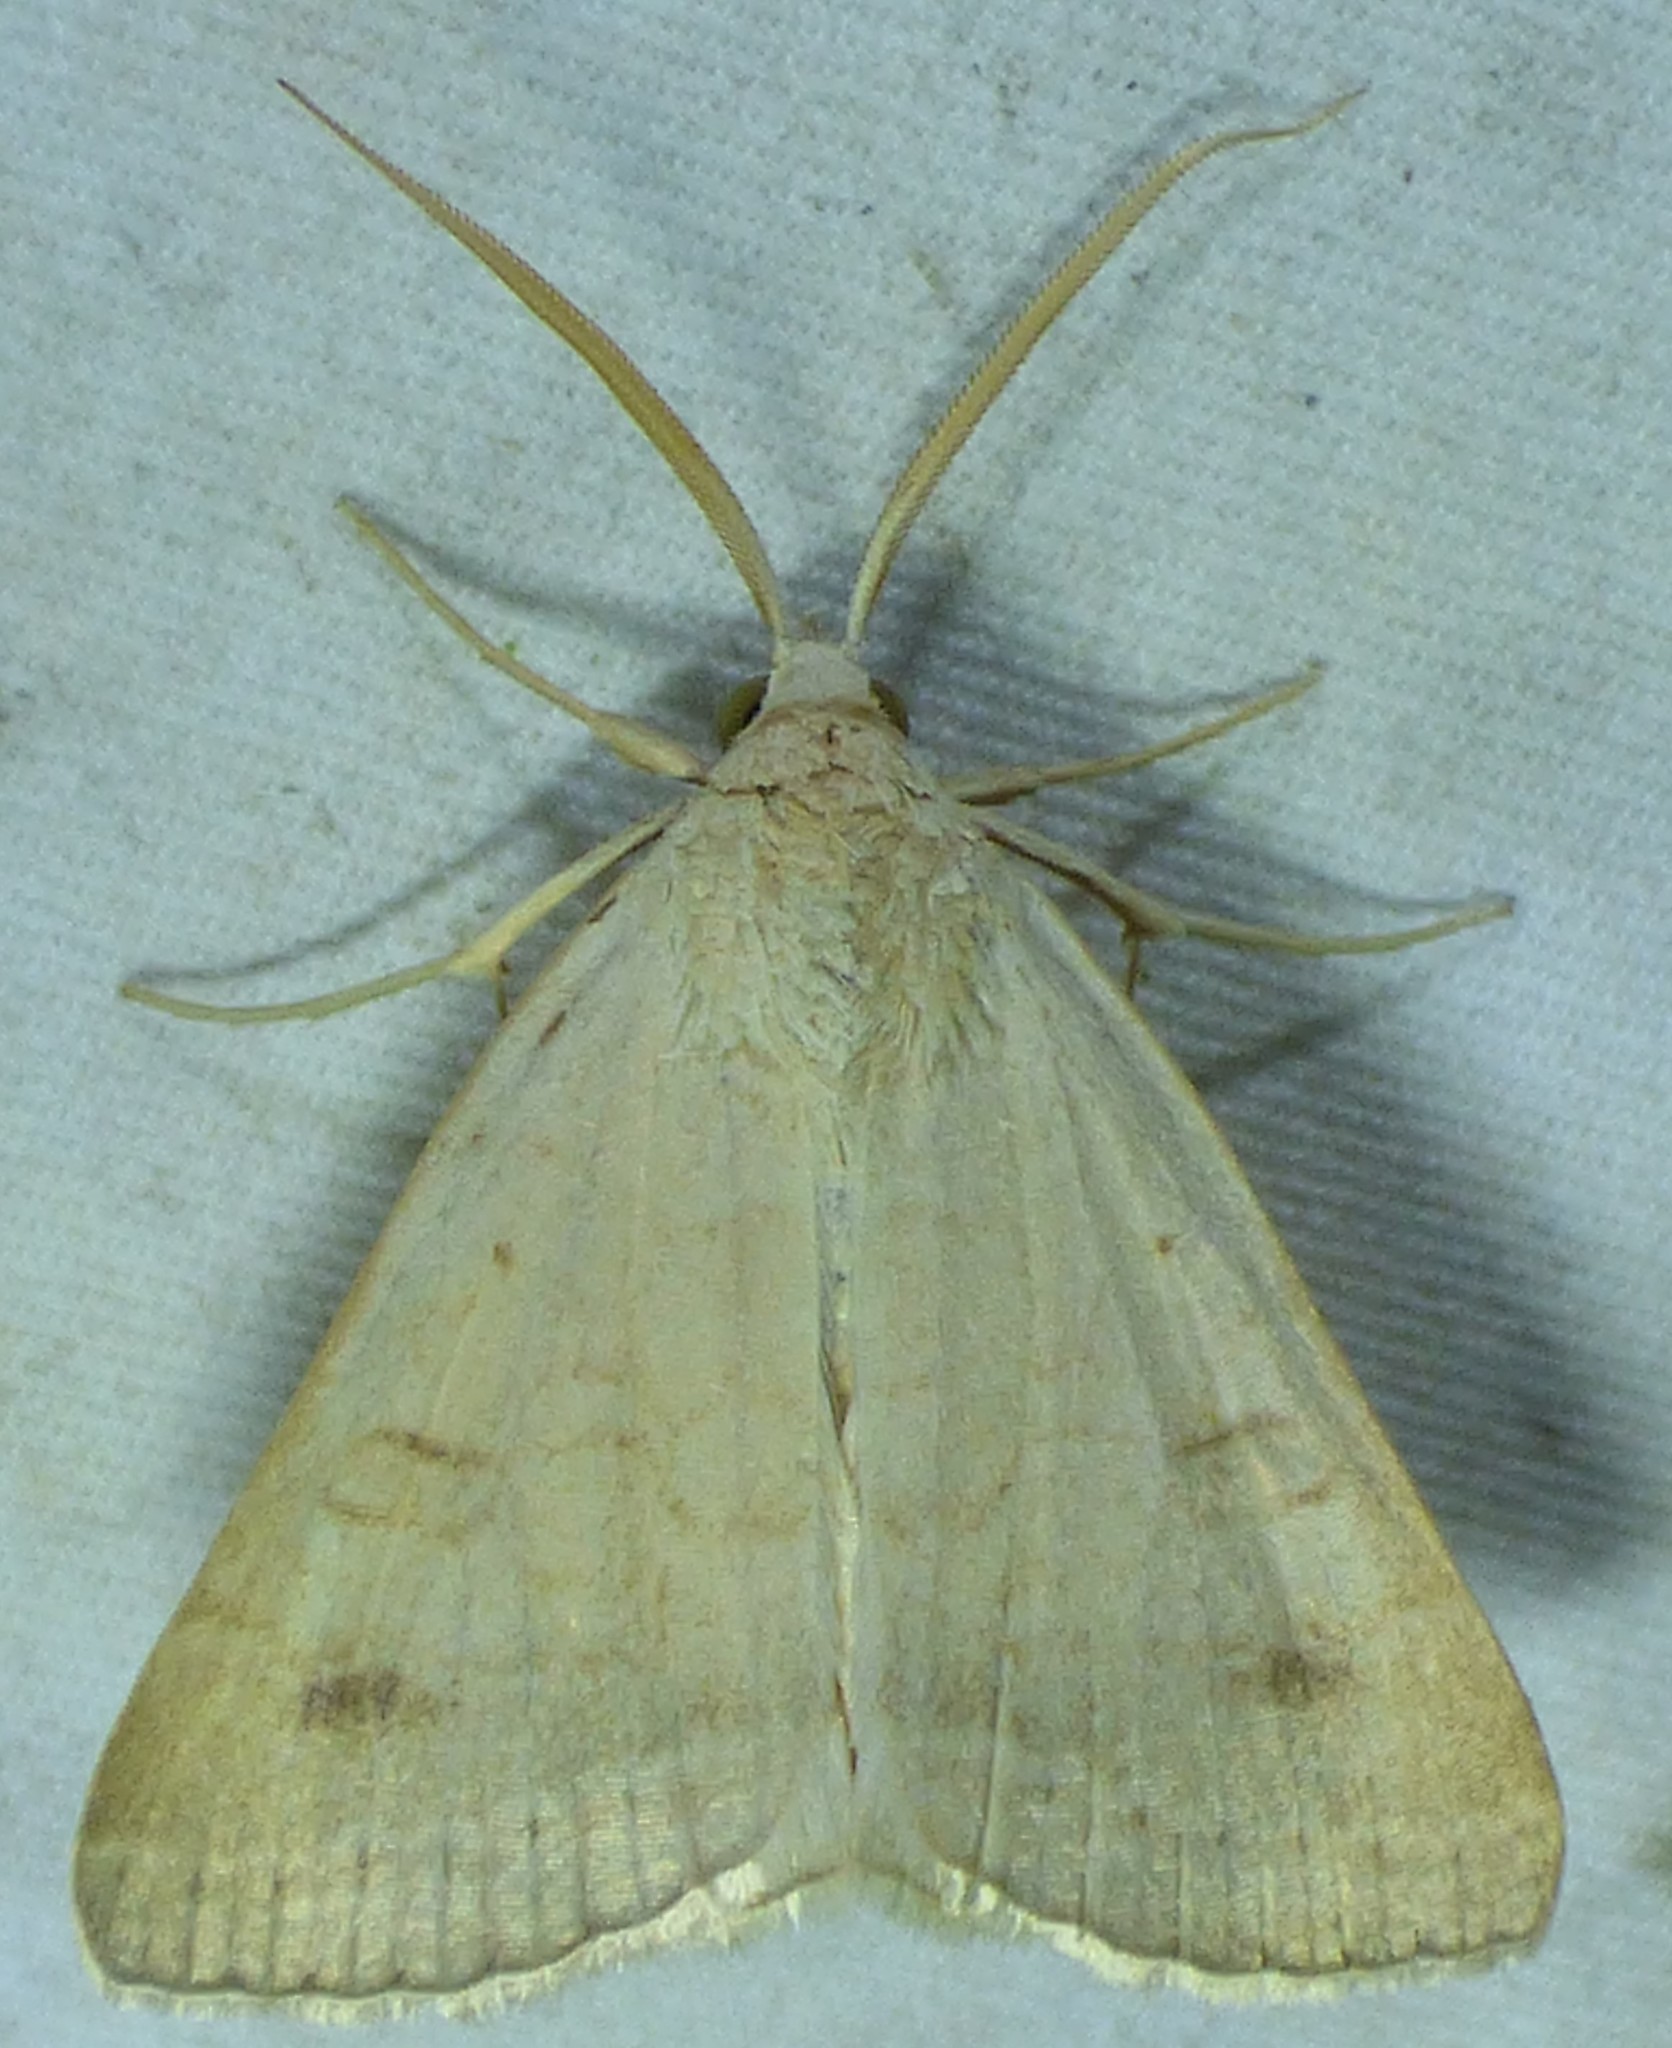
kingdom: Animalia
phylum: Arthropoda
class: Insecta
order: Lepidoptera
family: Erebidae
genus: Caenurgia
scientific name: Caenurgia chloropha
